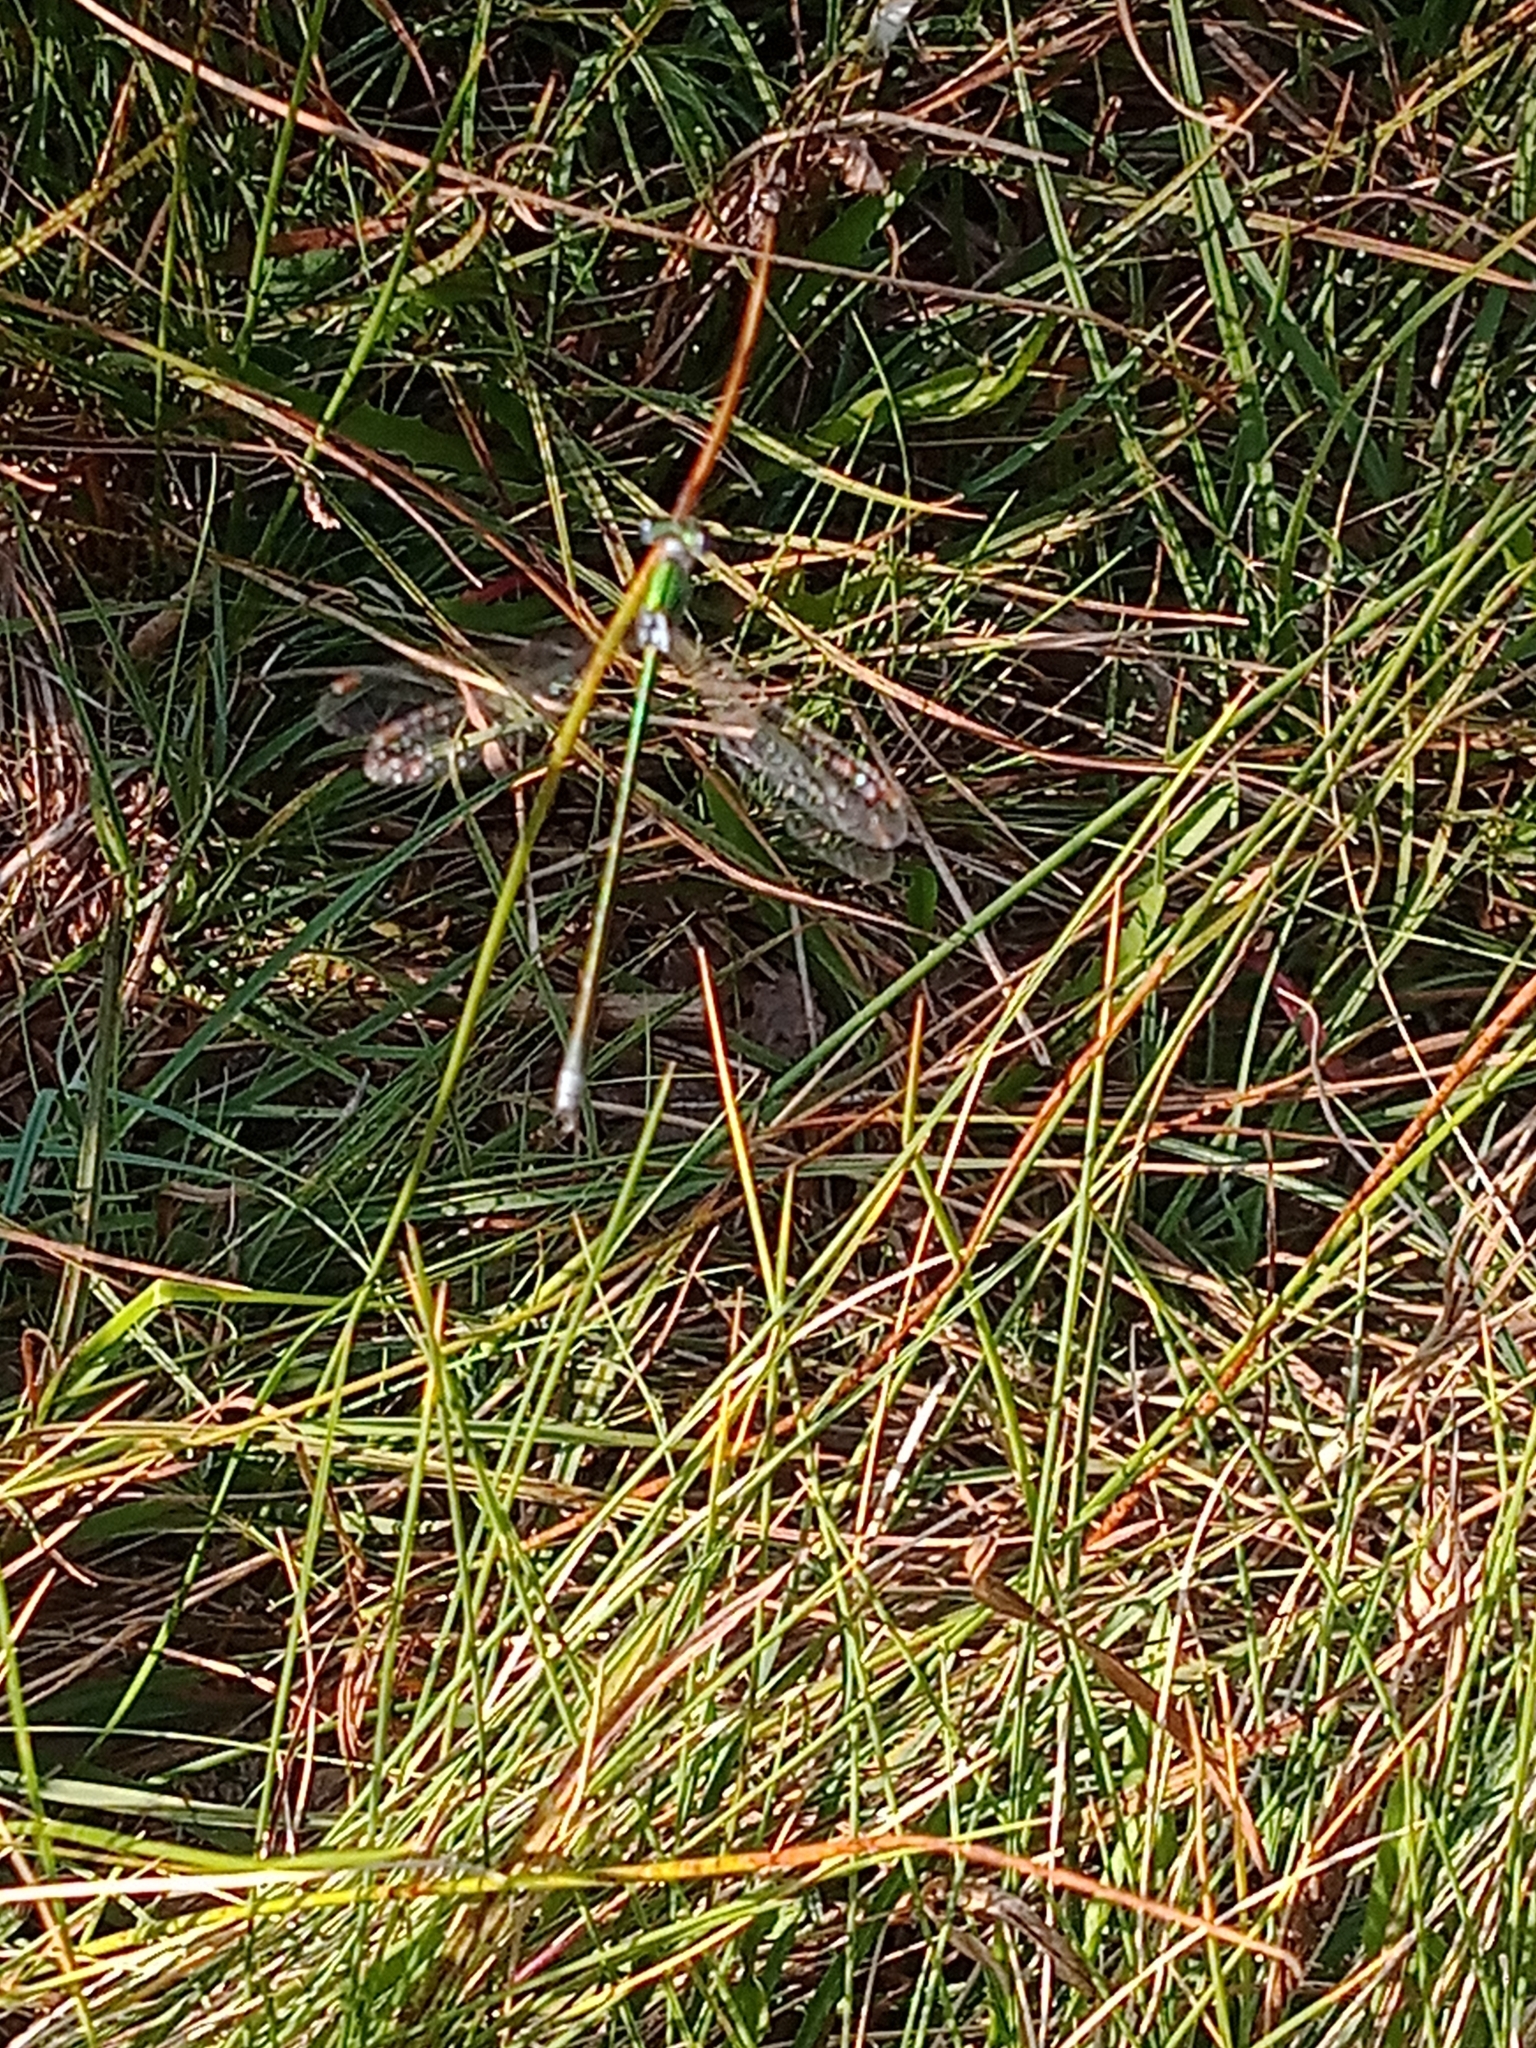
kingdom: Animalia
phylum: Arthropoda
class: Insecta
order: Odonata
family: Lestidae
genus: Lestes
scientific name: Lestes virens
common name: Small emerald spreadwing
